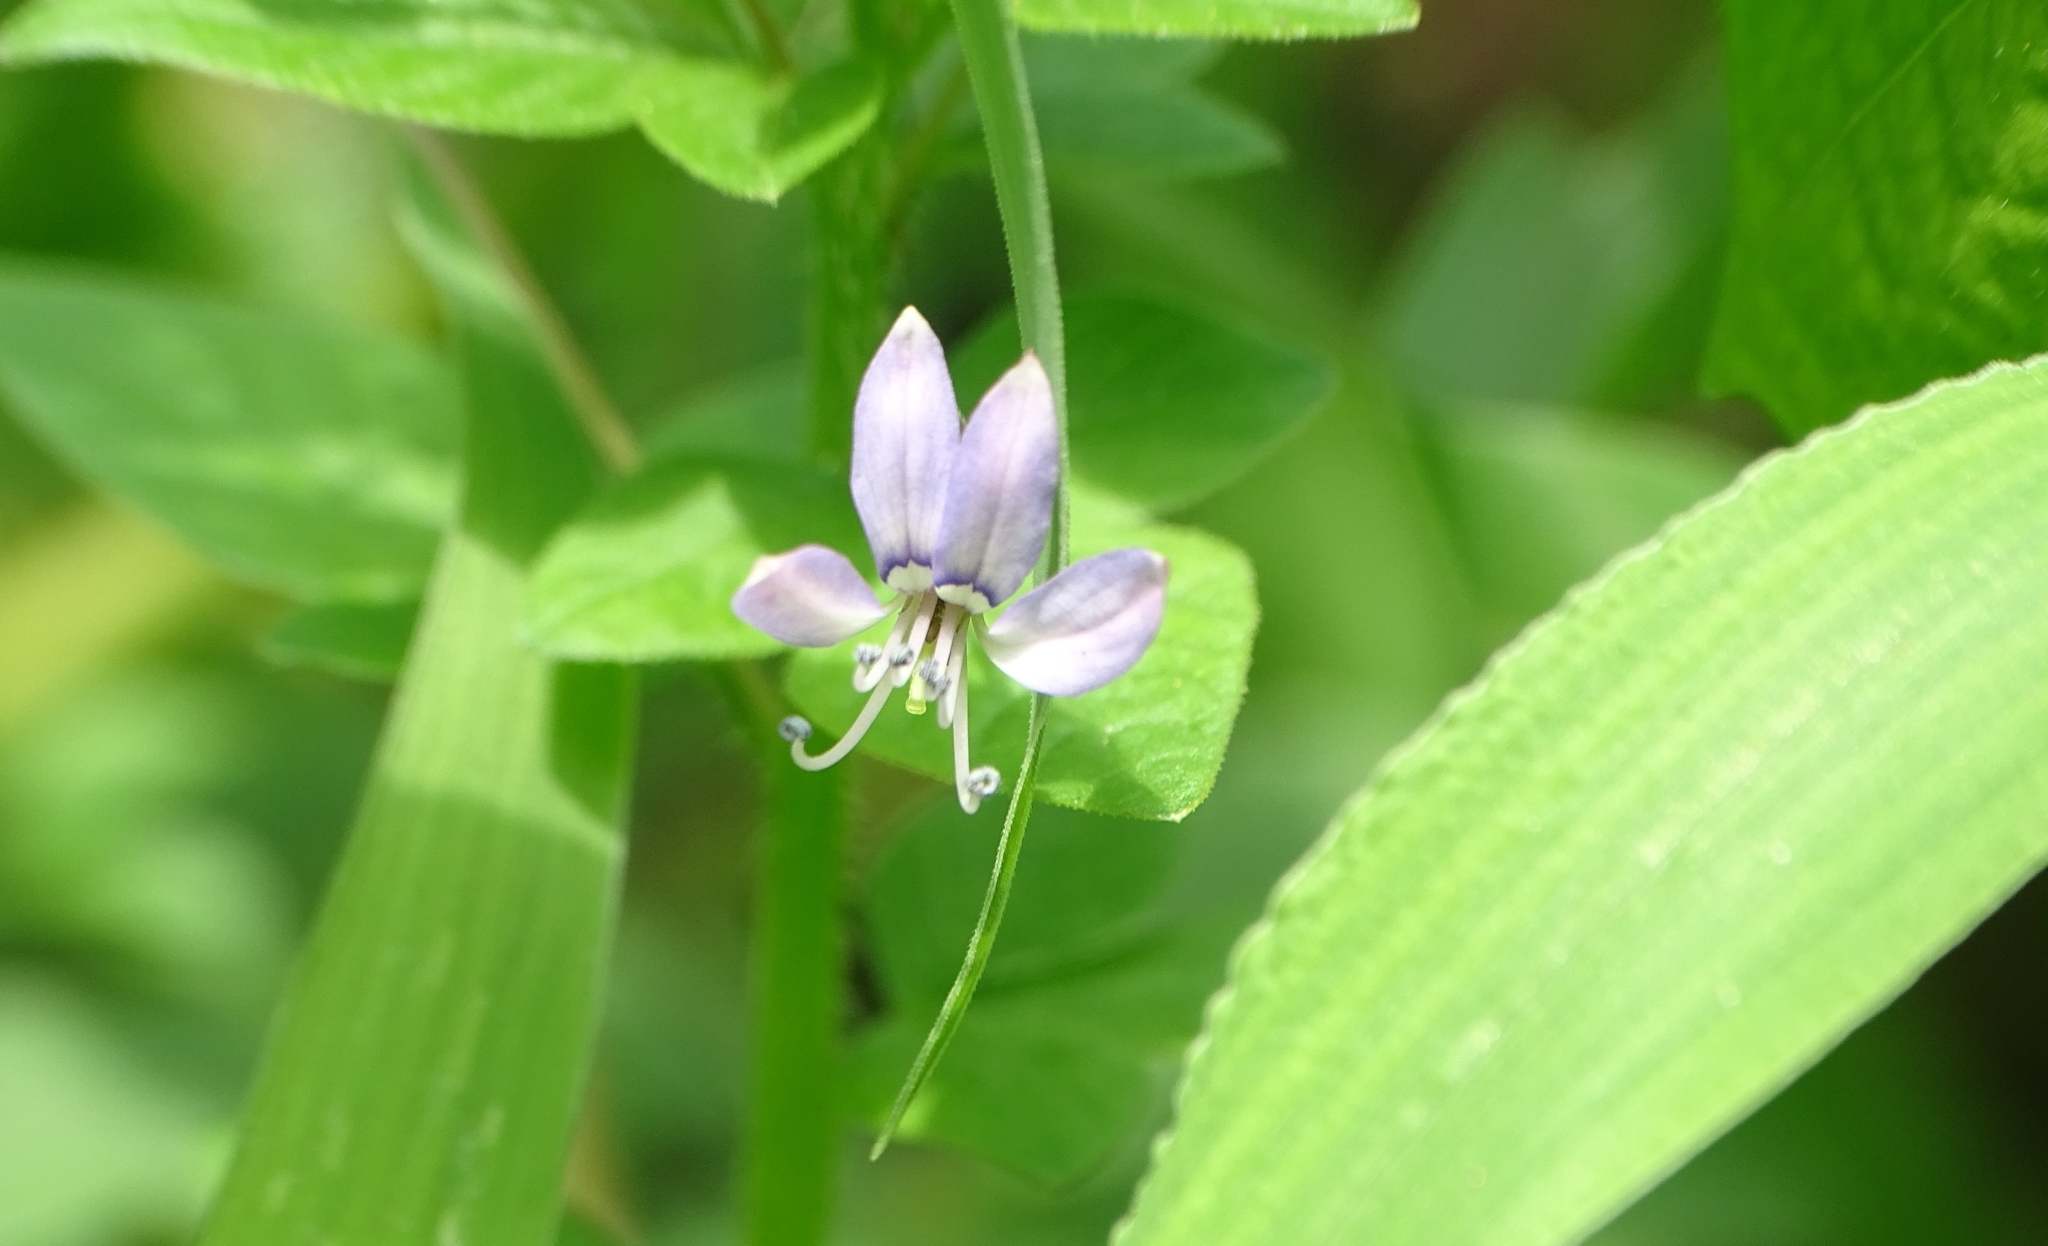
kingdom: Plantae
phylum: Tracheophyta
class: Magnoliopsida
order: Brassicales
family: Cleomaceae
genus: Sieruela
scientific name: Sieruela rutidosperma
